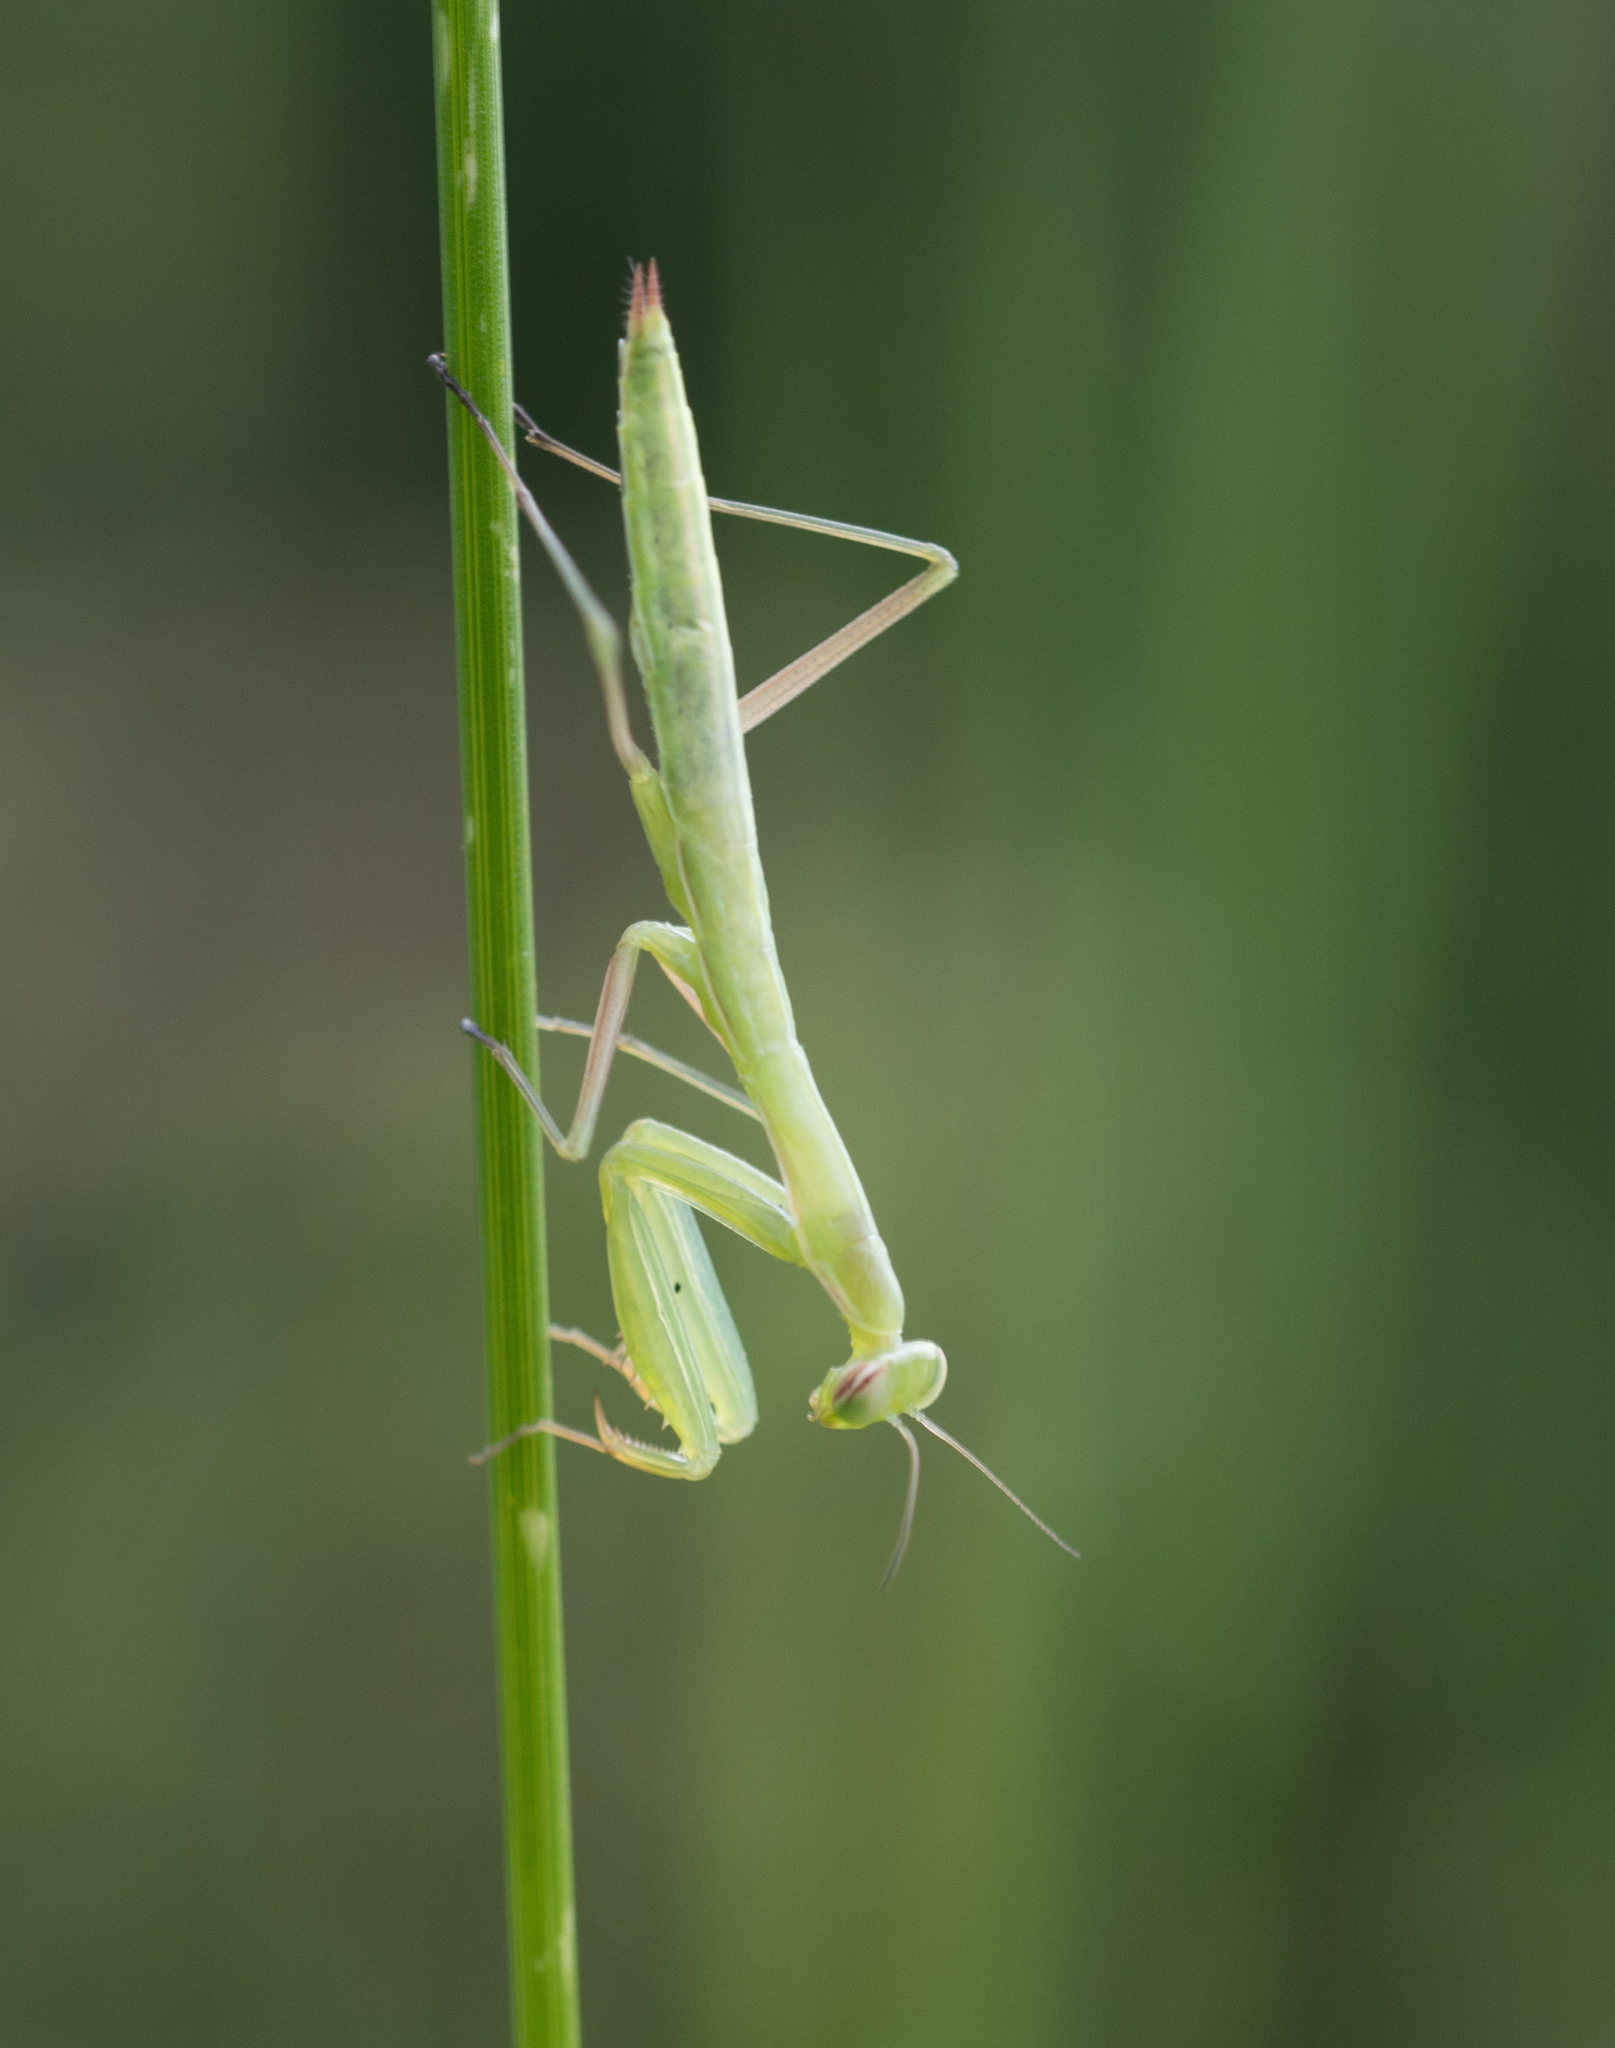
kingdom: Animalia
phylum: Arthropoda
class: Insecta
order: Mantodea
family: Mantidae
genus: Mantis
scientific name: Mantis religiosa
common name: Praying mantis
